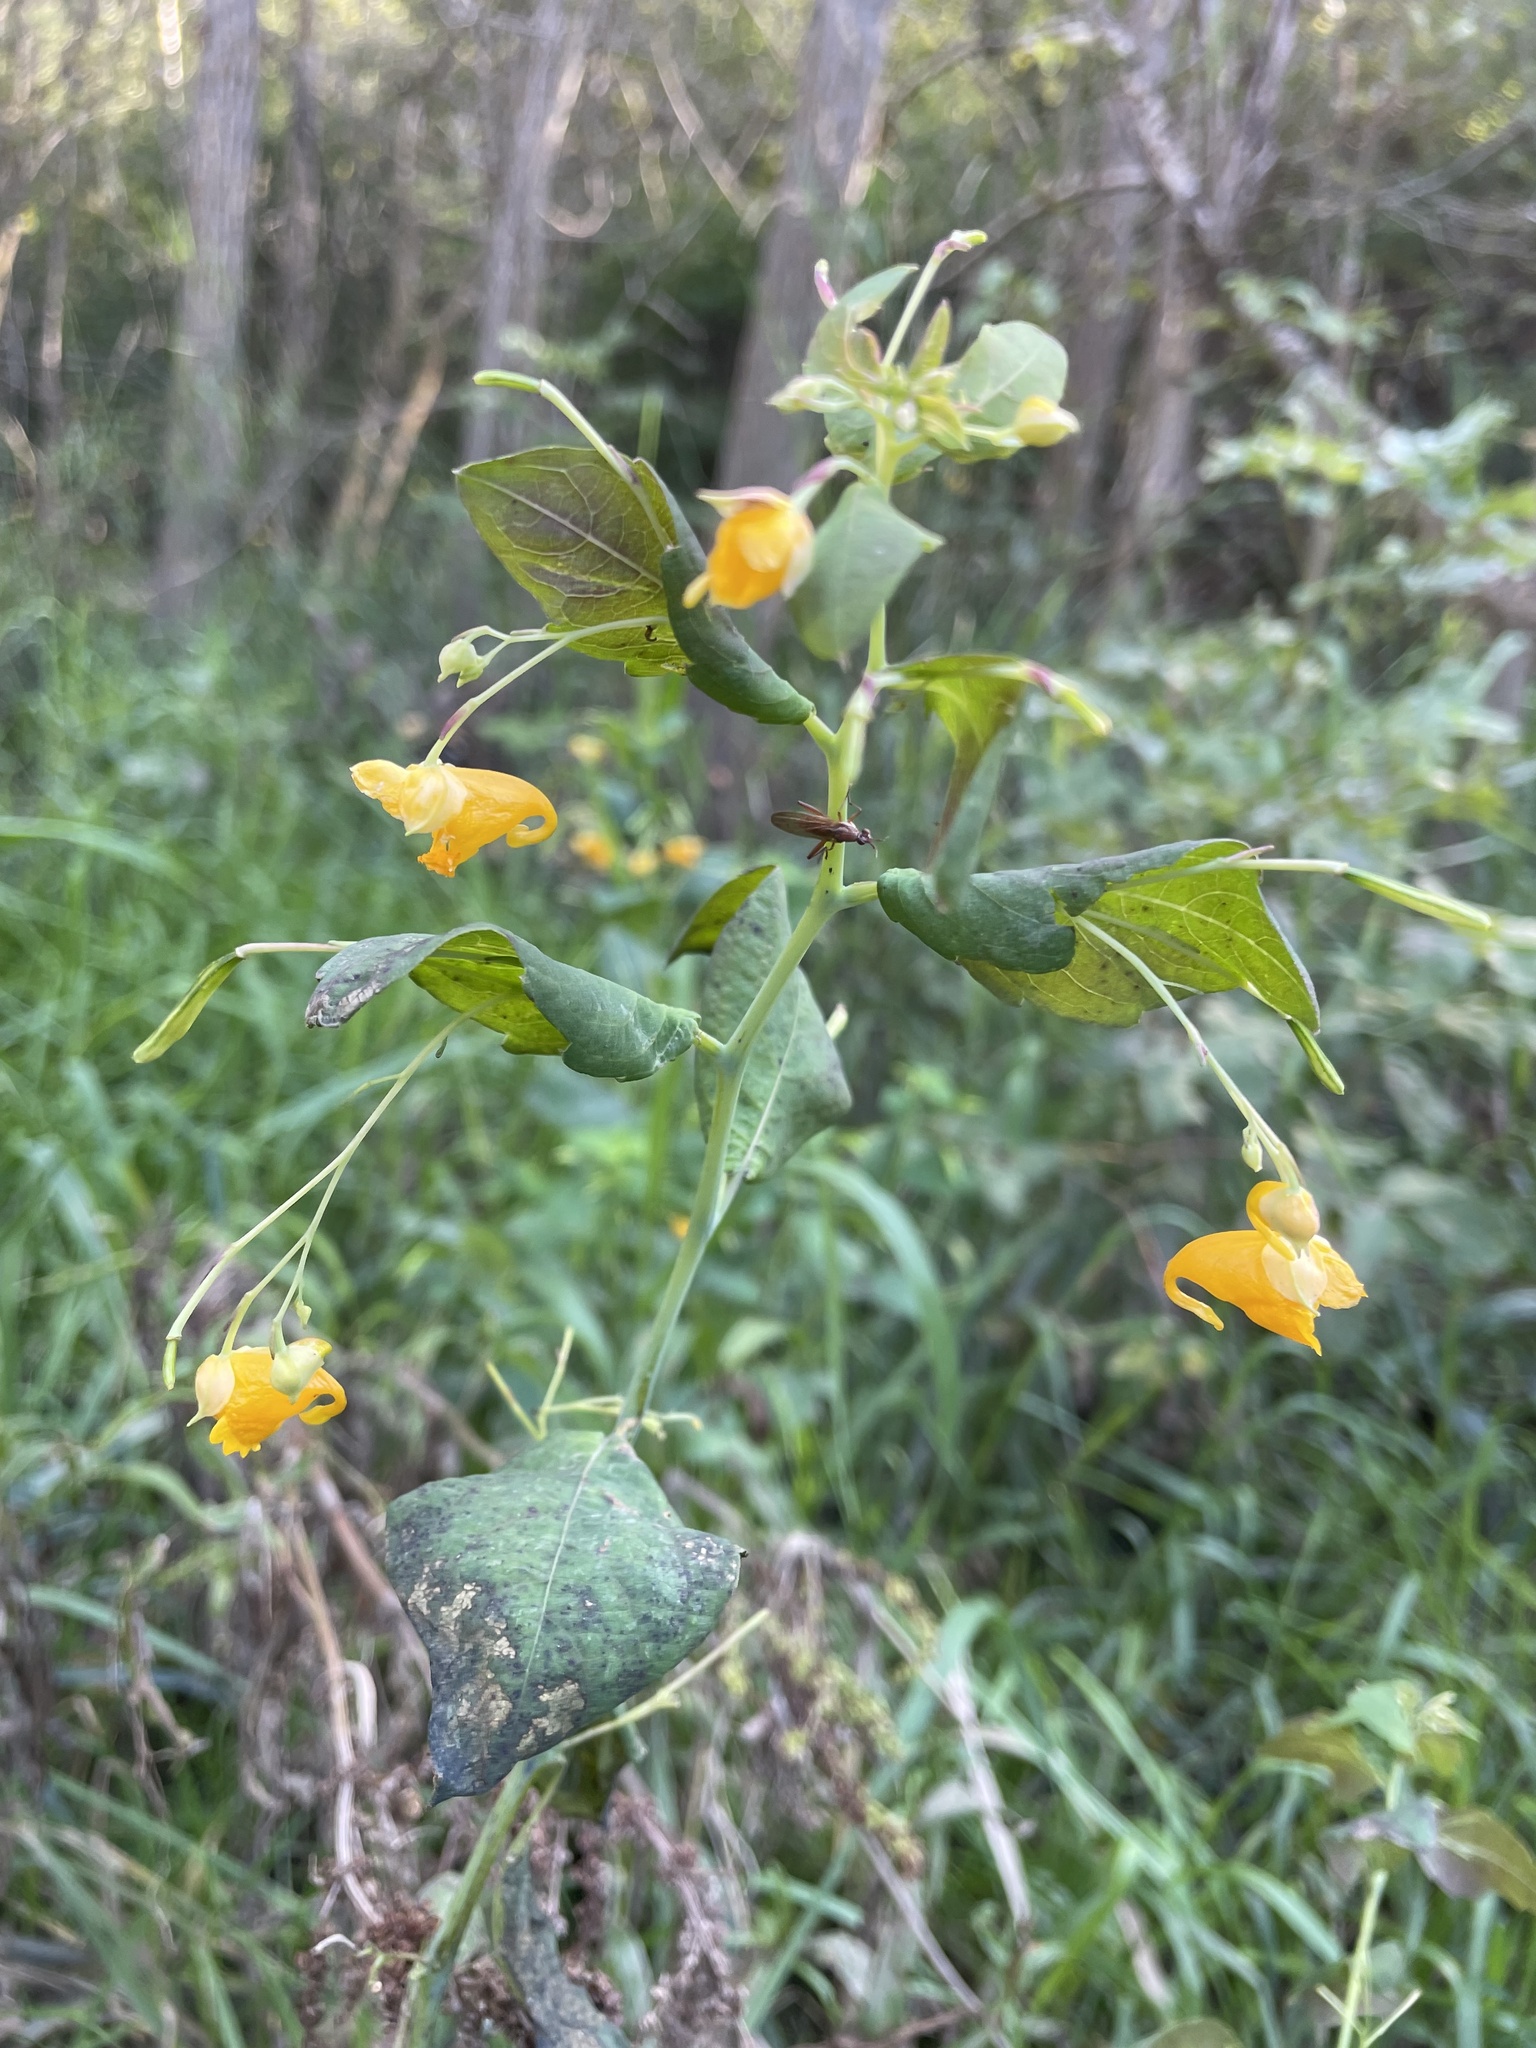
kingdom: Plantae
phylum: Tracheophyta
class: Magnoliopsida
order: Ericales
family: Balsaminaceae
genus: Impatiens
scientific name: Impatiens capensis
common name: Orange balsam
